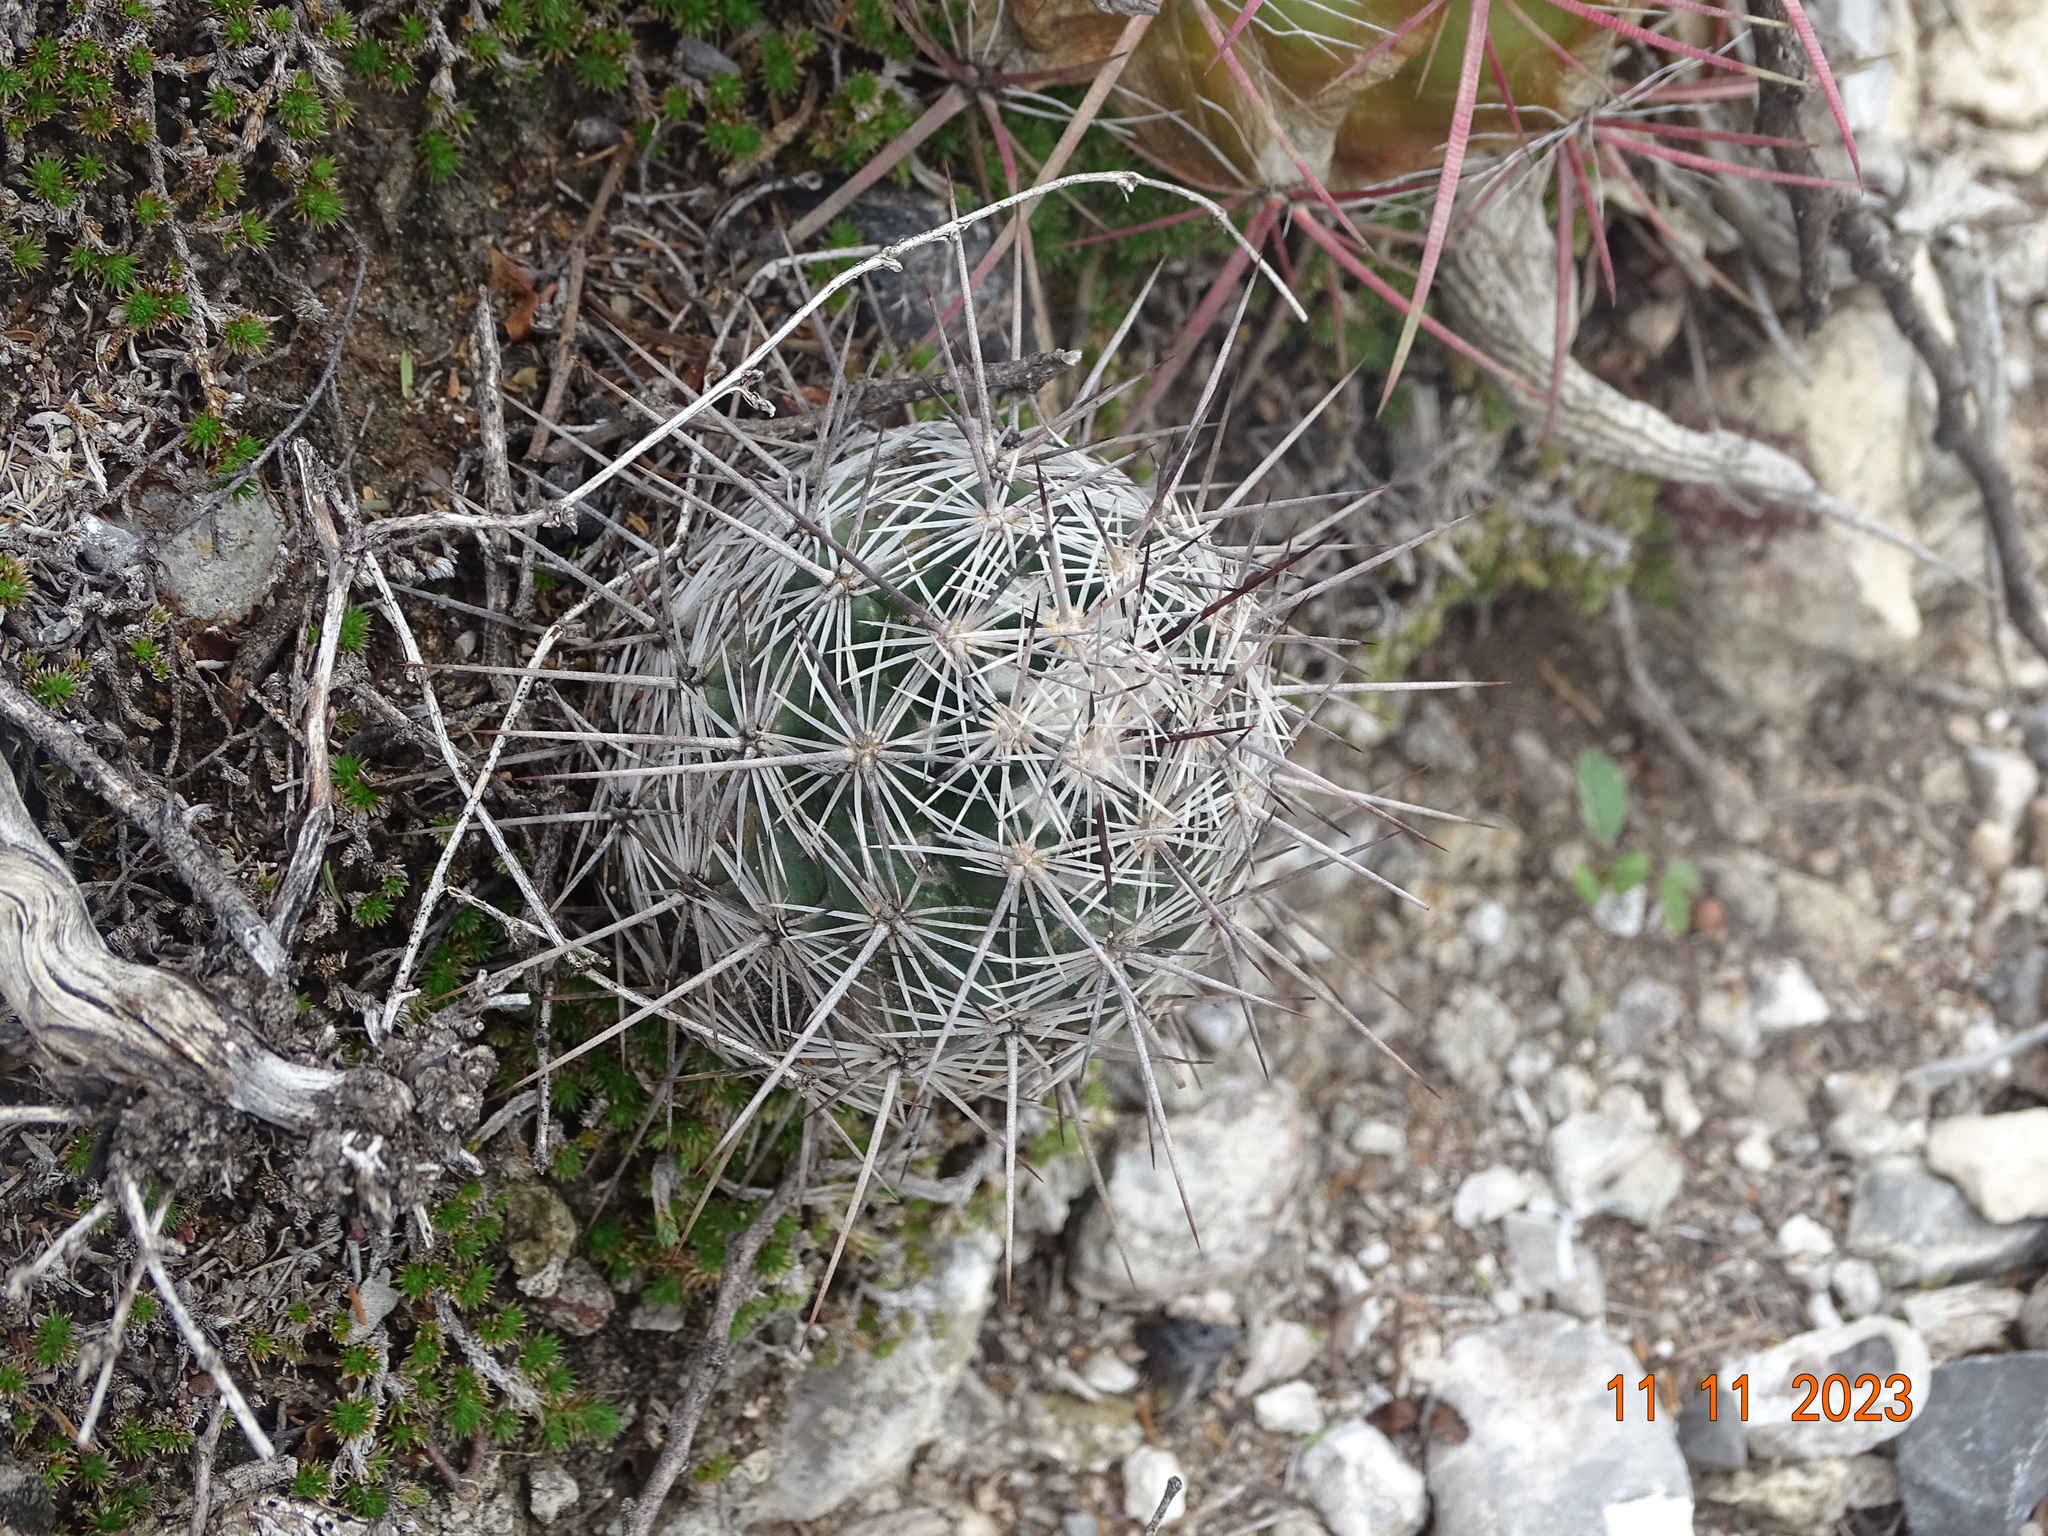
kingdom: Plantae
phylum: Tracheophyta
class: Magnoliopsida
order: Caryophyllales
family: Cactaceae
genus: Cochemiea
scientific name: Cochemiea conoidea
